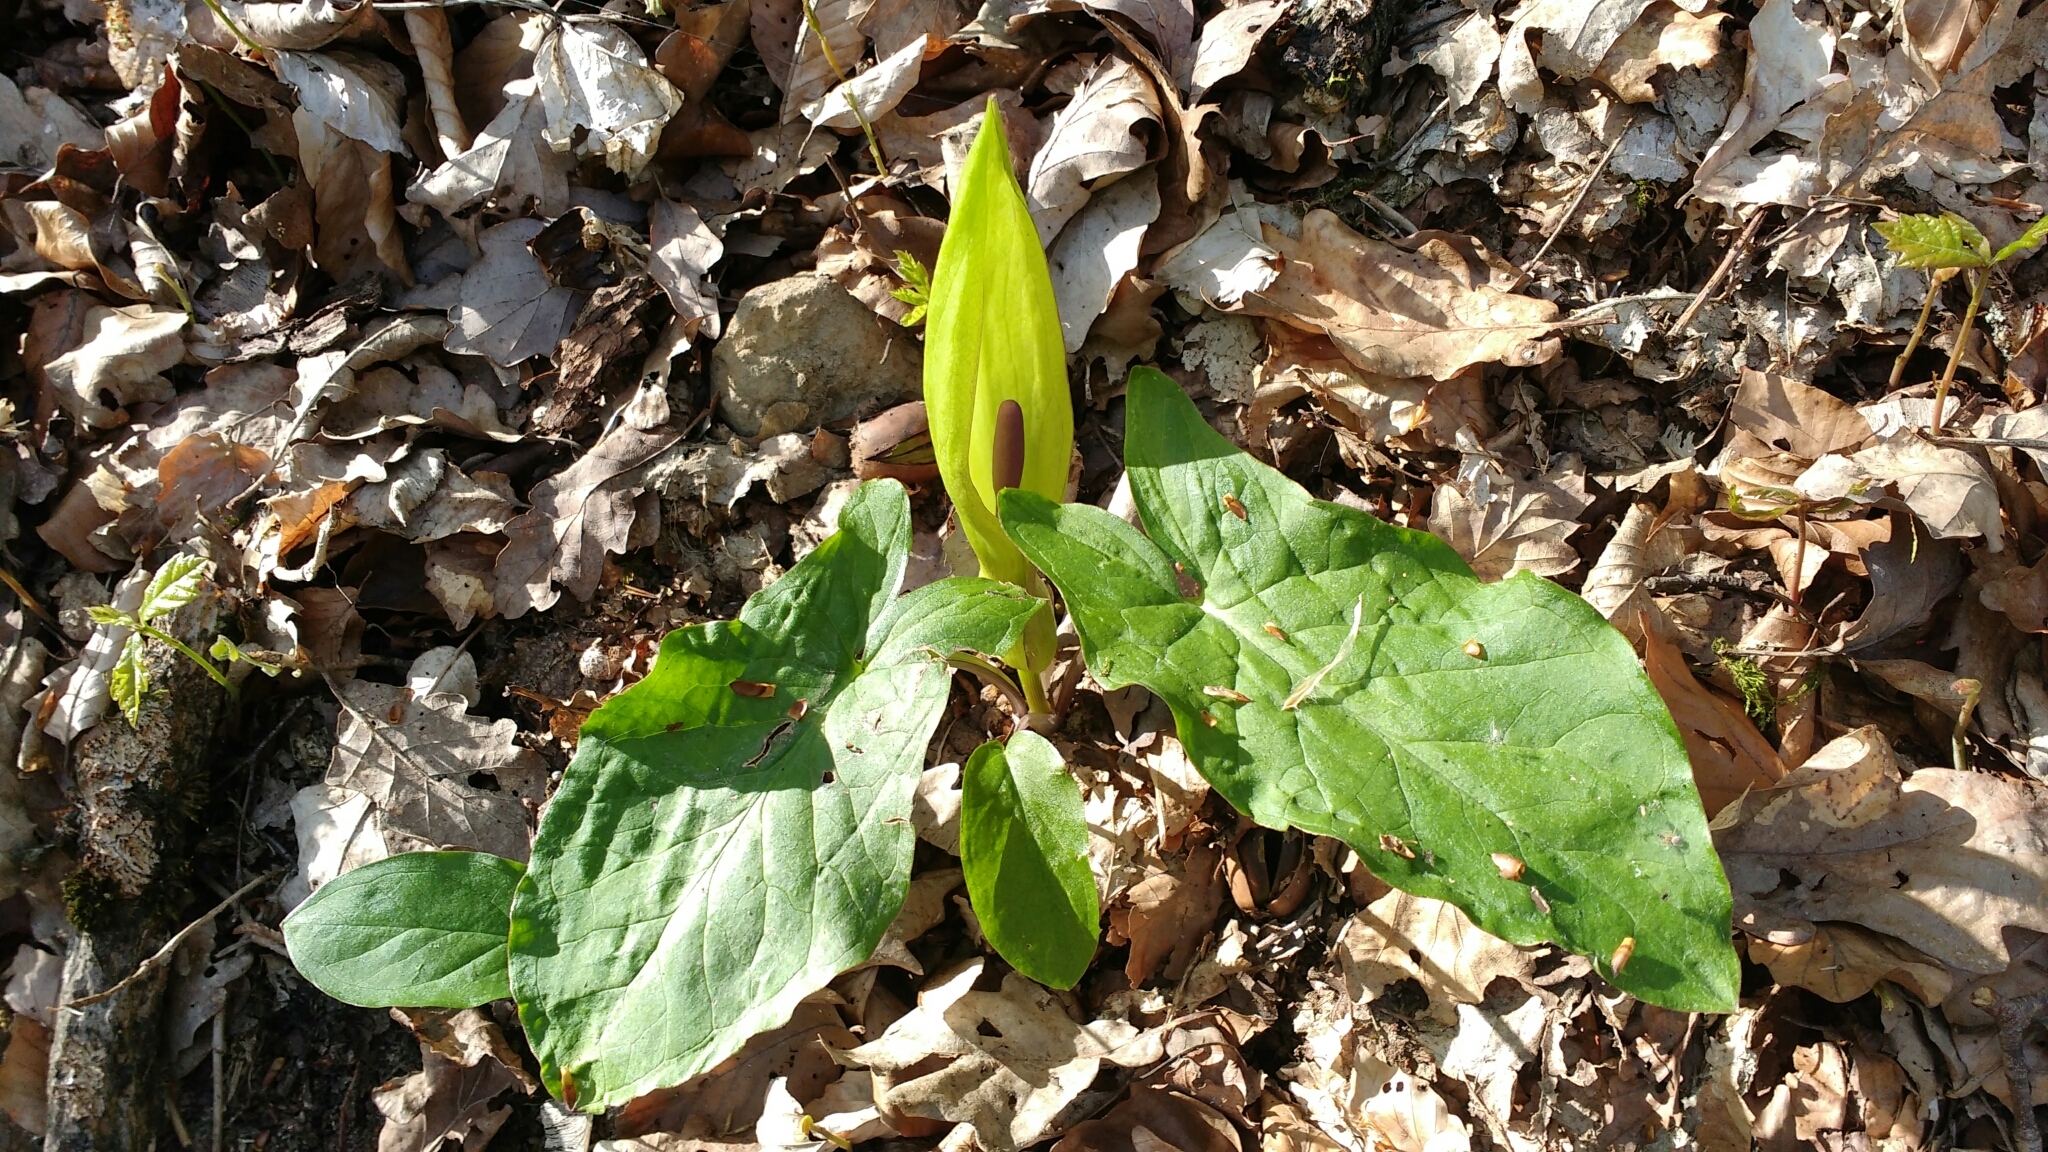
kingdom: Plantae
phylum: Tracheophyta
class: Liliopsida
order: Alismatales
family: Araceae
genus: Arum
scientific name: Arum maculatum
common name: Lords-and-ladies
